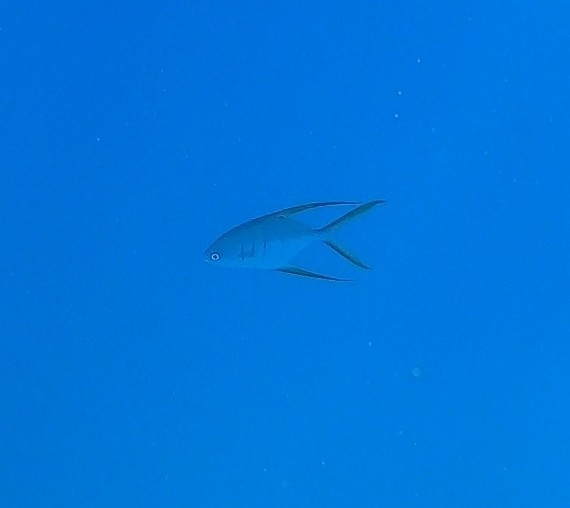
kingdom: Animalia
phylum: Chordata
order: Perciformes
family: Carangidae
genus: Trachinotus
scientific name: Trachinotus rhodopus
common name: Gafftopsail pompano
